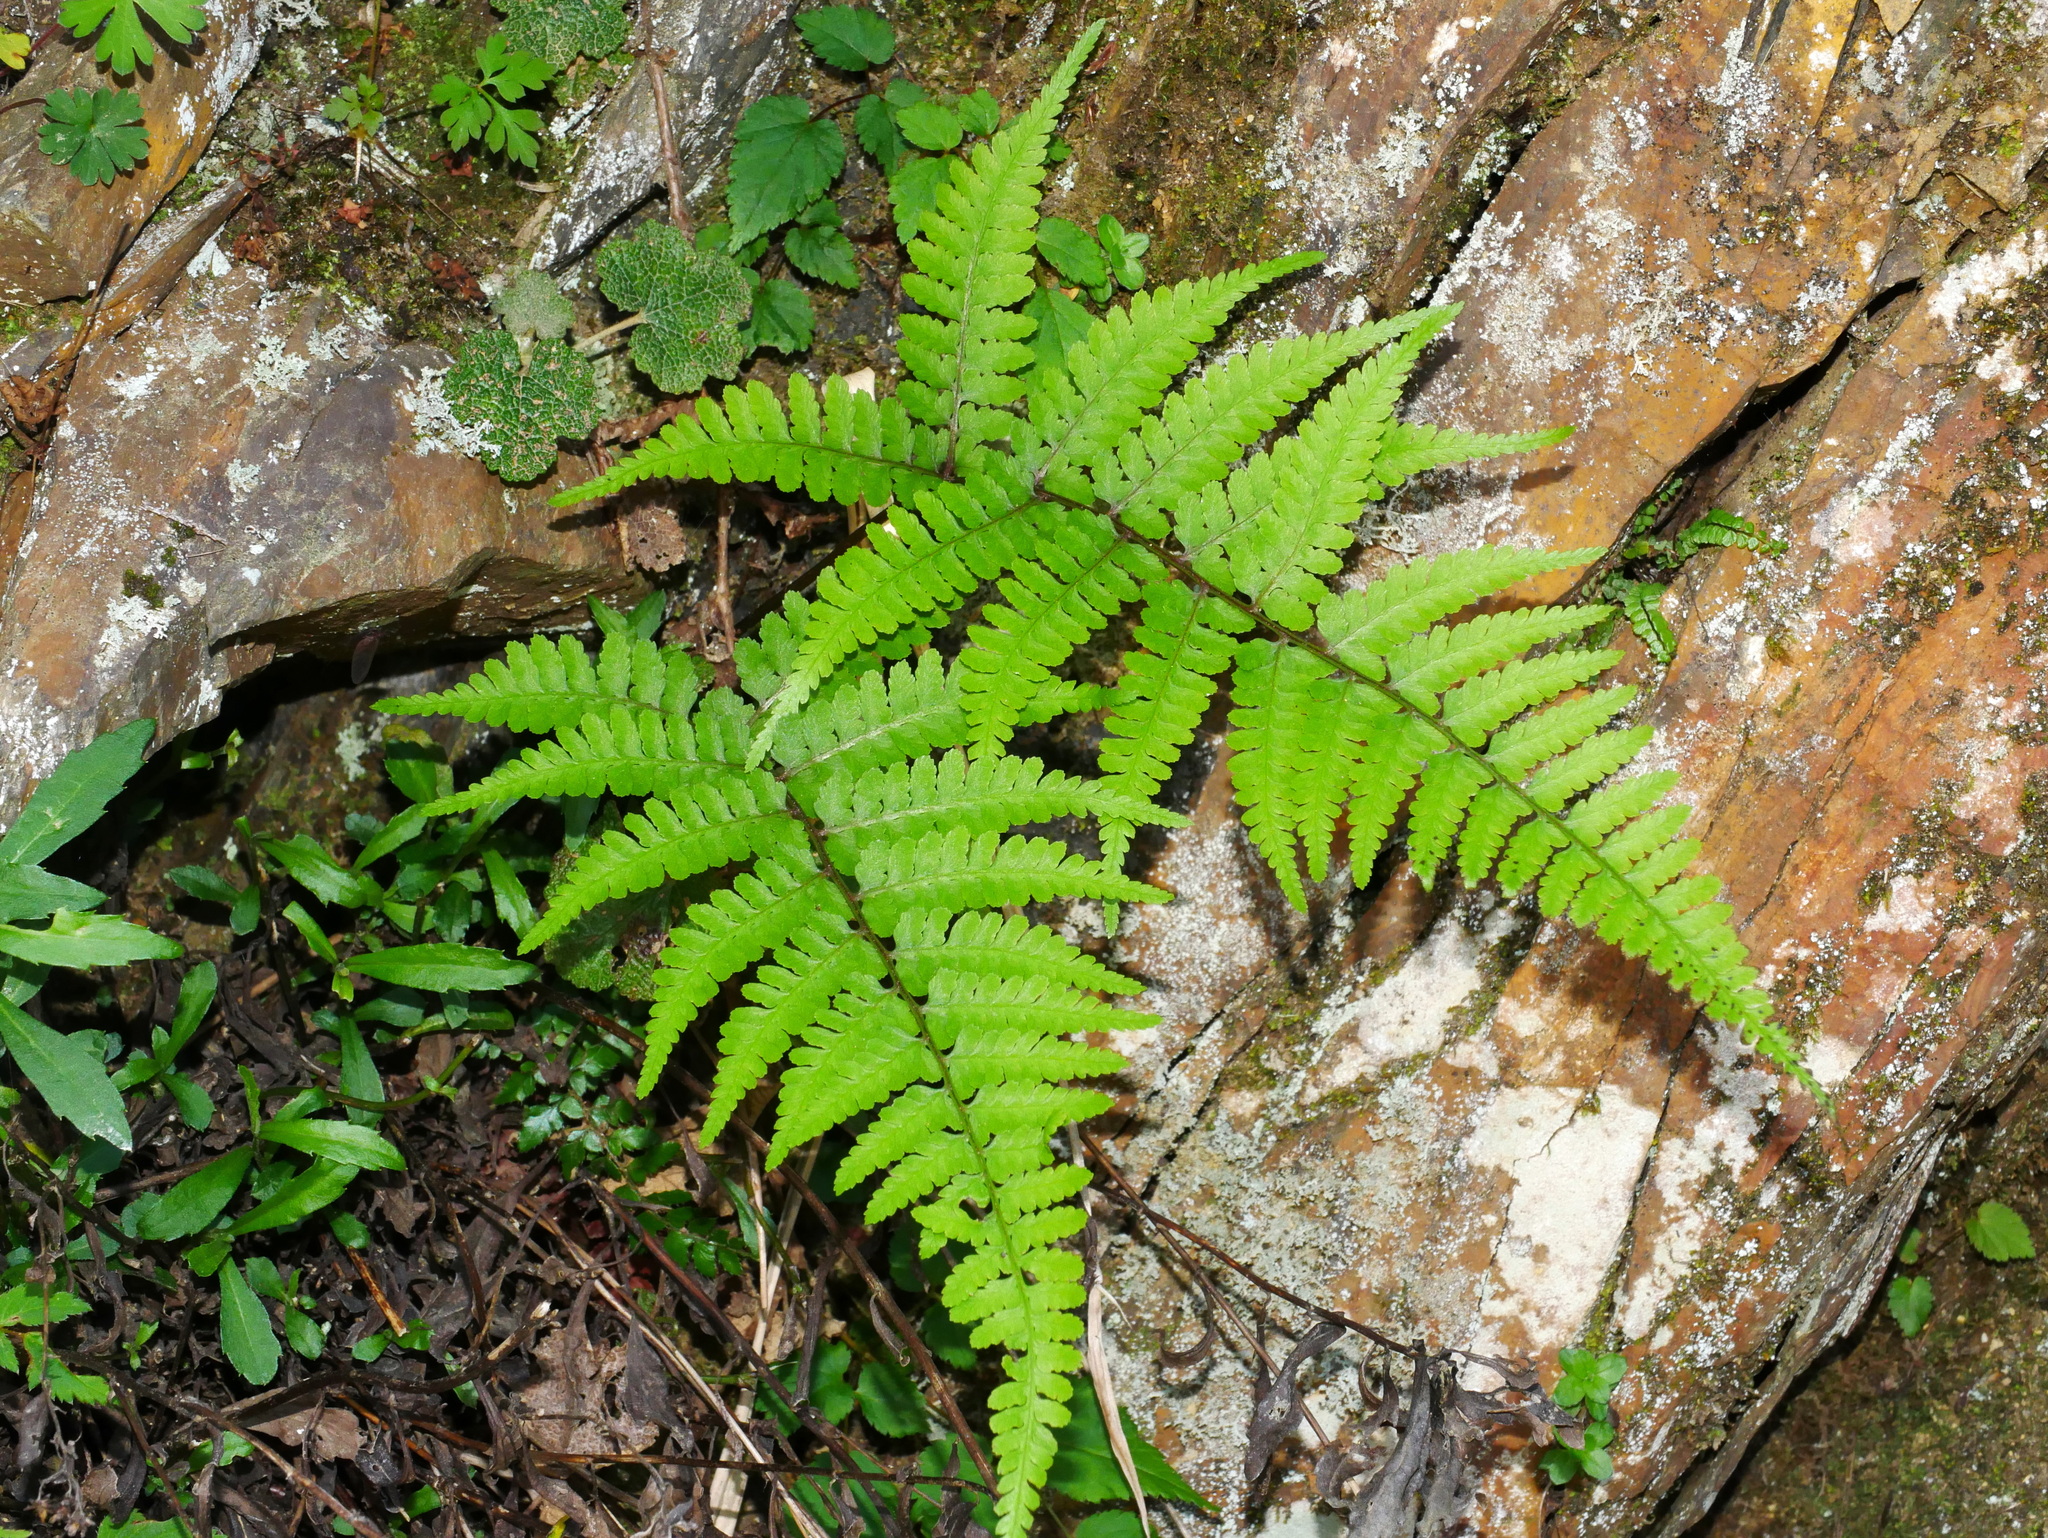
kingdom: Plantae
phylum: Tracheophyta
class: Polypodiopsida
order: Polypodiales
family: Athyriaceae
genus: Athyrium
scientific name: Athyrium vidalii
